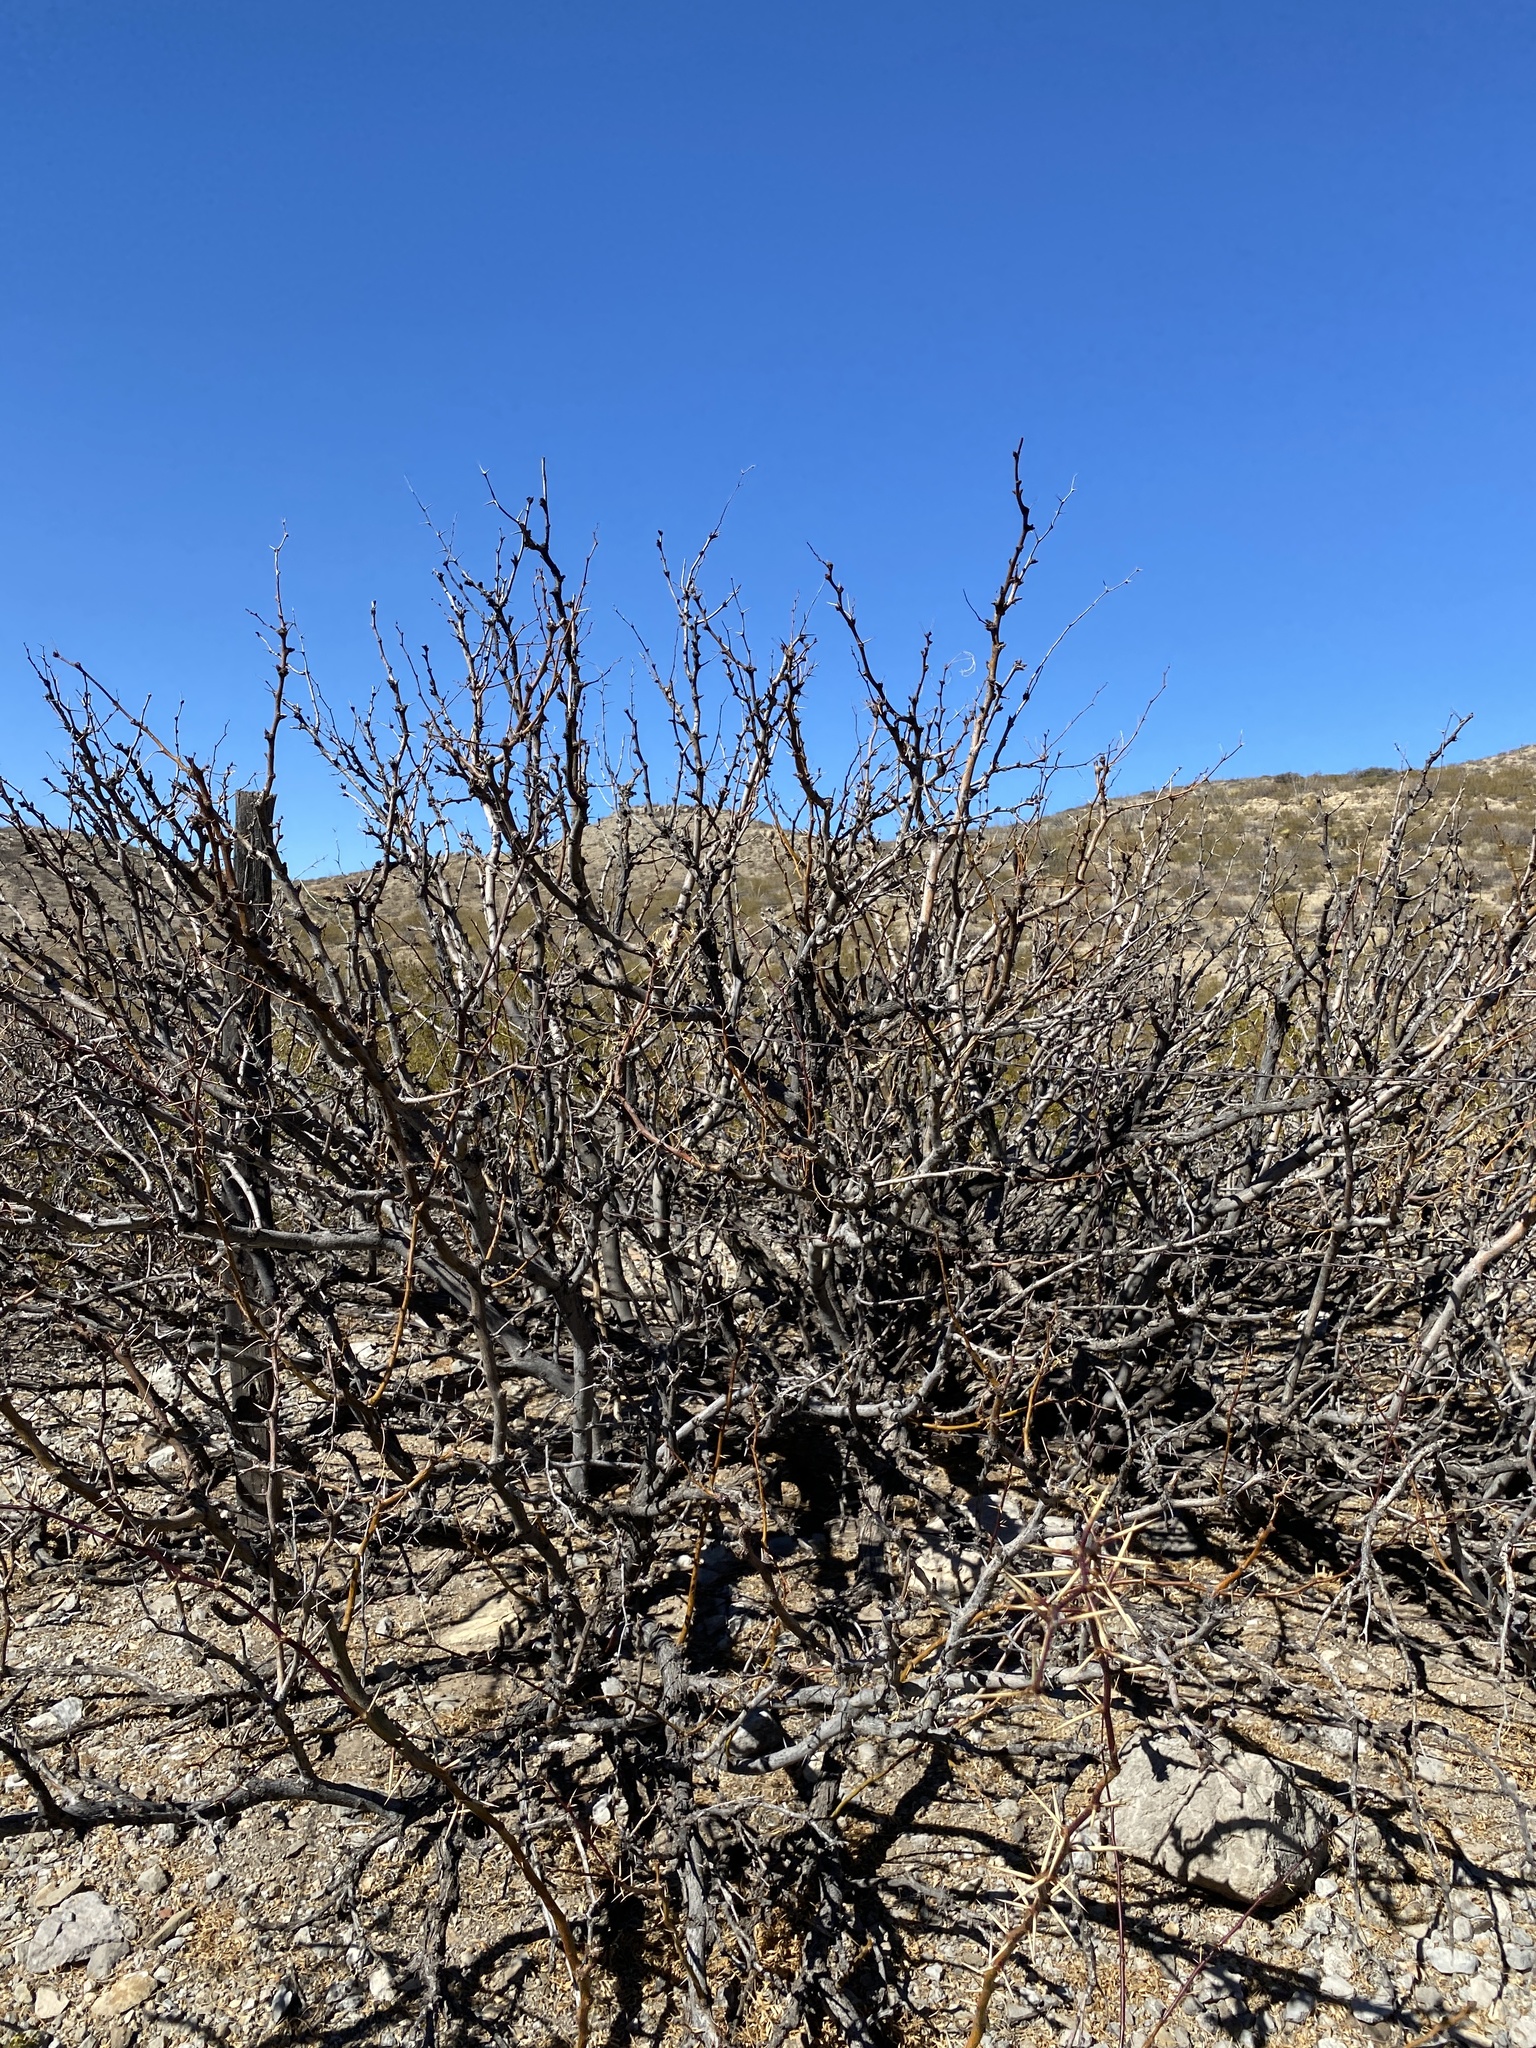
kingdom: Plantae
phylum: Tracheophyta
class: Magnoliopsida
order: Fabales
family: Fabaceae
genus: Prosopis
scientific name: Prosopis glandulosa
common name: Honey mesquite
